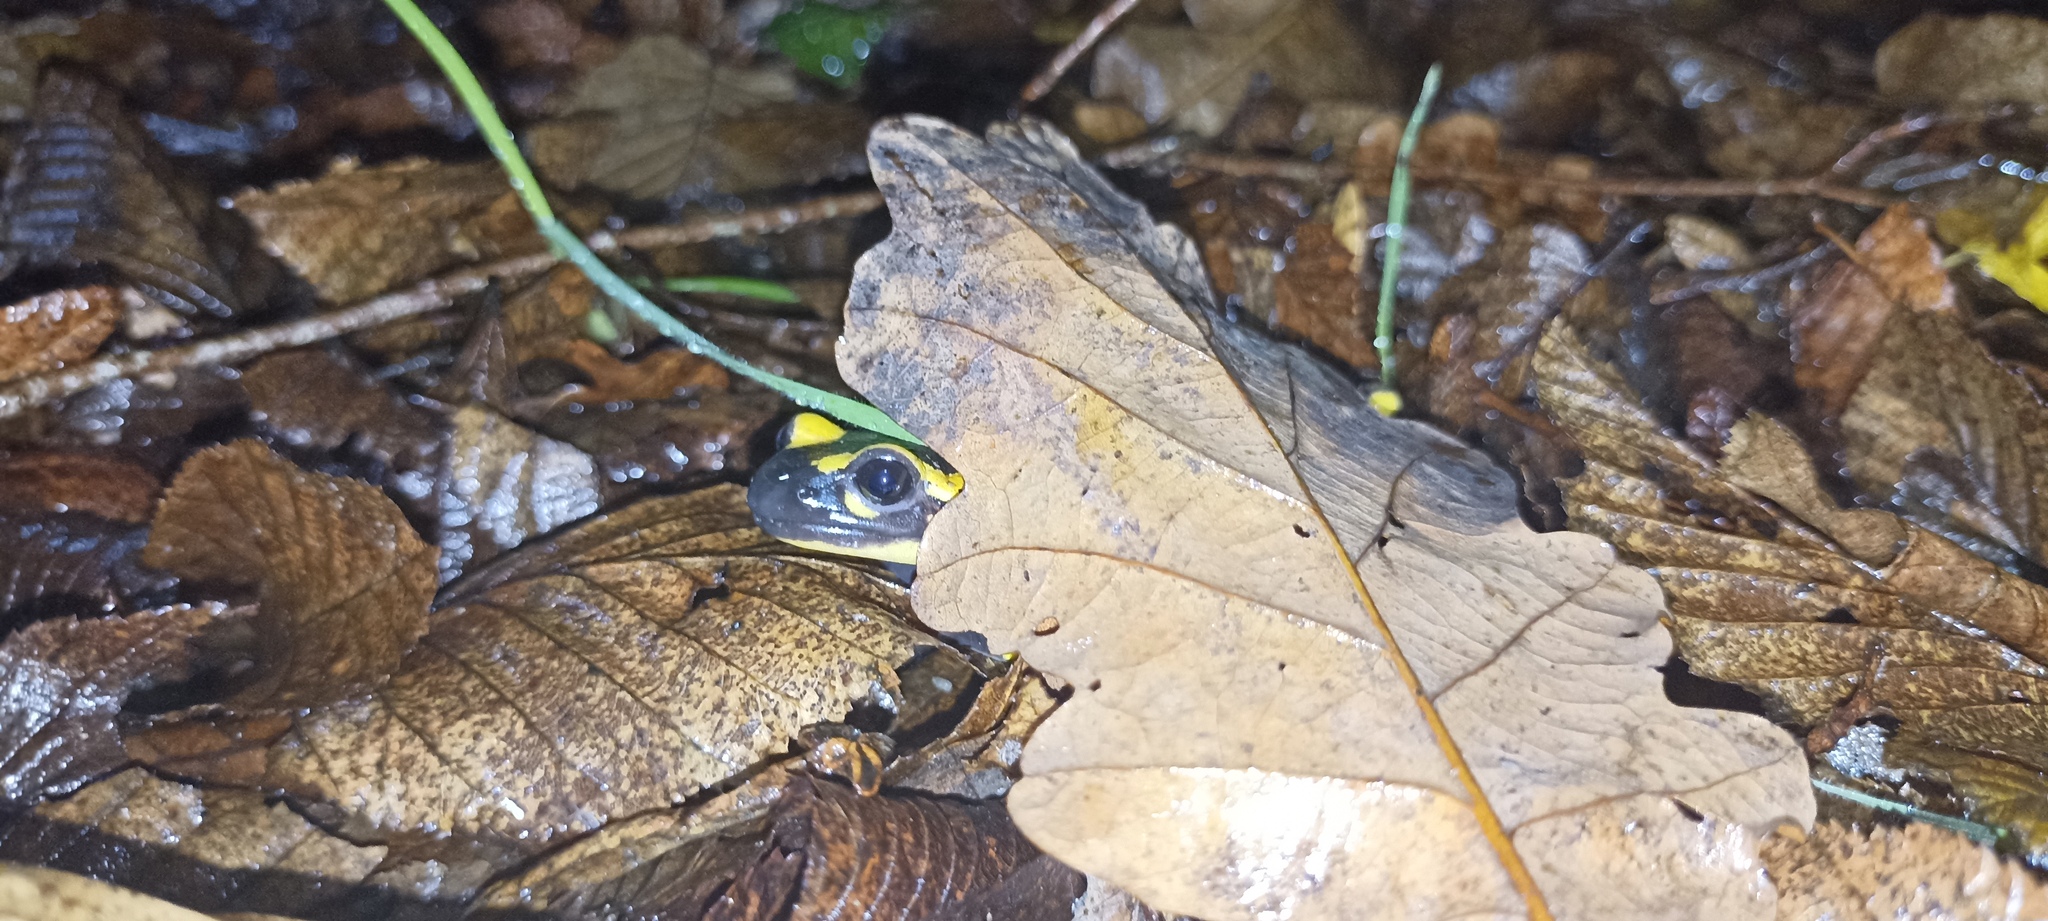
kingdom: Animalia
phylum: Chordata
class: Amphibia
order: Caudata
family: Salamandridae
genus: Salamandra
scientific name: Salamandra salamandra
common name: Fire salamander
